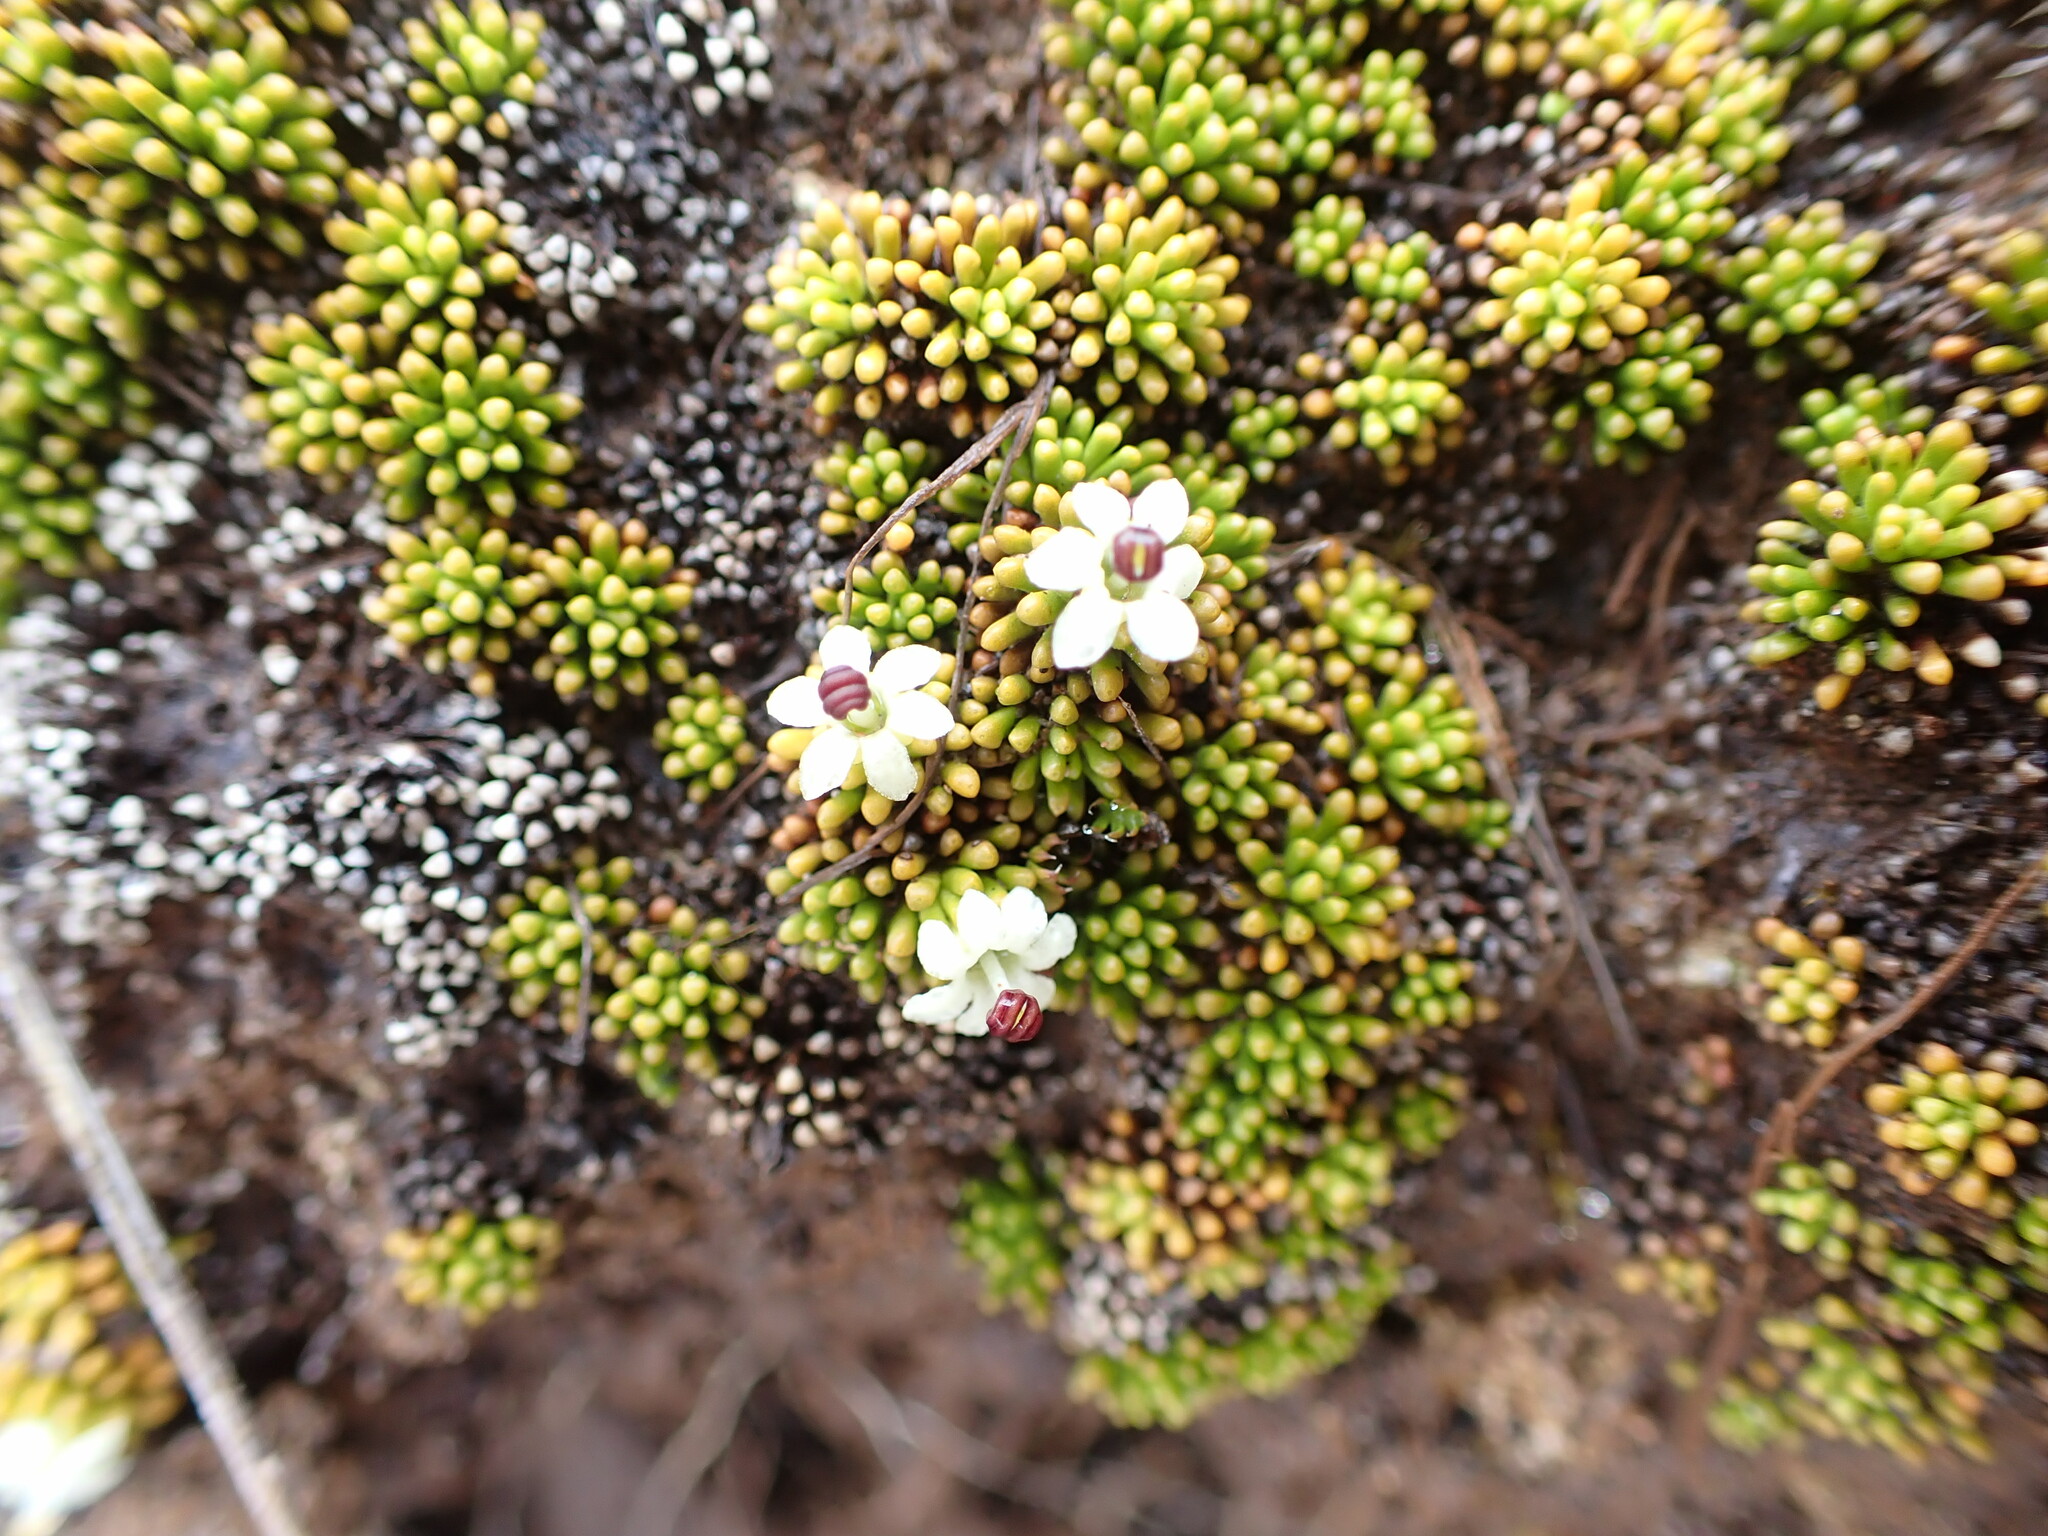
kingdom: Plantae
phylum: Tracheophyta
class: Magnoliopsida
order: Asterales
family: Stylidiaceae
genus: Phyllachne
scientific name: Phyllachne colensoi
